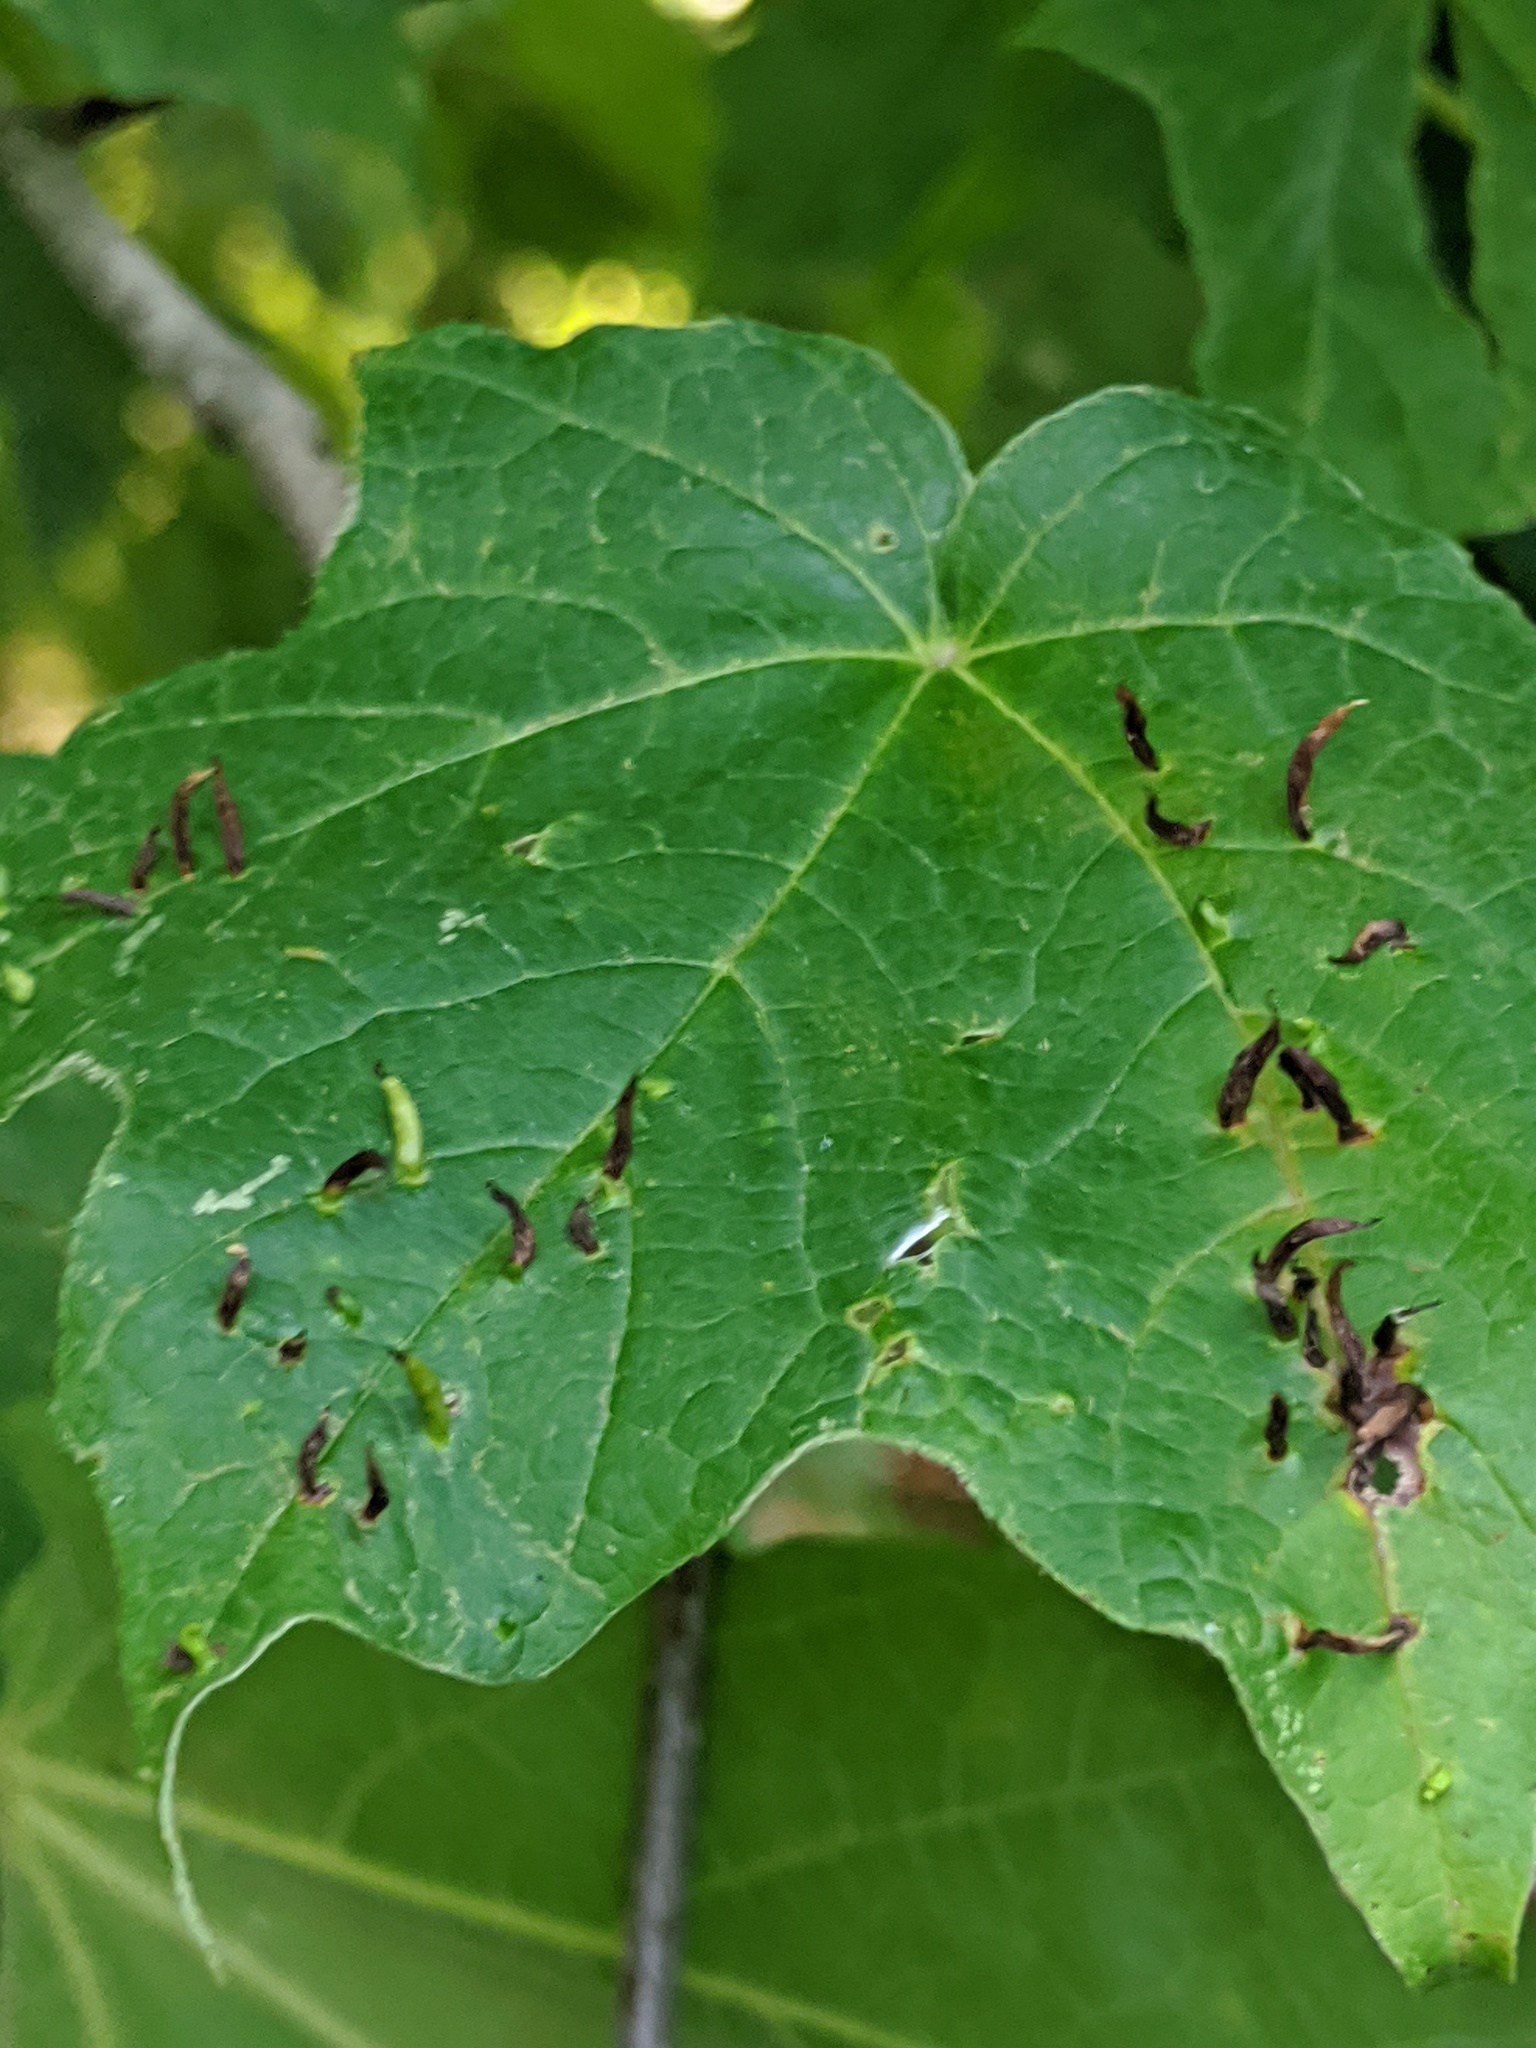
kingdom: Animalia
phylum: Arthropoda
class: Arachnida
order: Trombidiformes
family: Eriophyidae
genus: Vasates
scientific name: Vasates aceriscrumena
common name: Maple spindle gall mite
